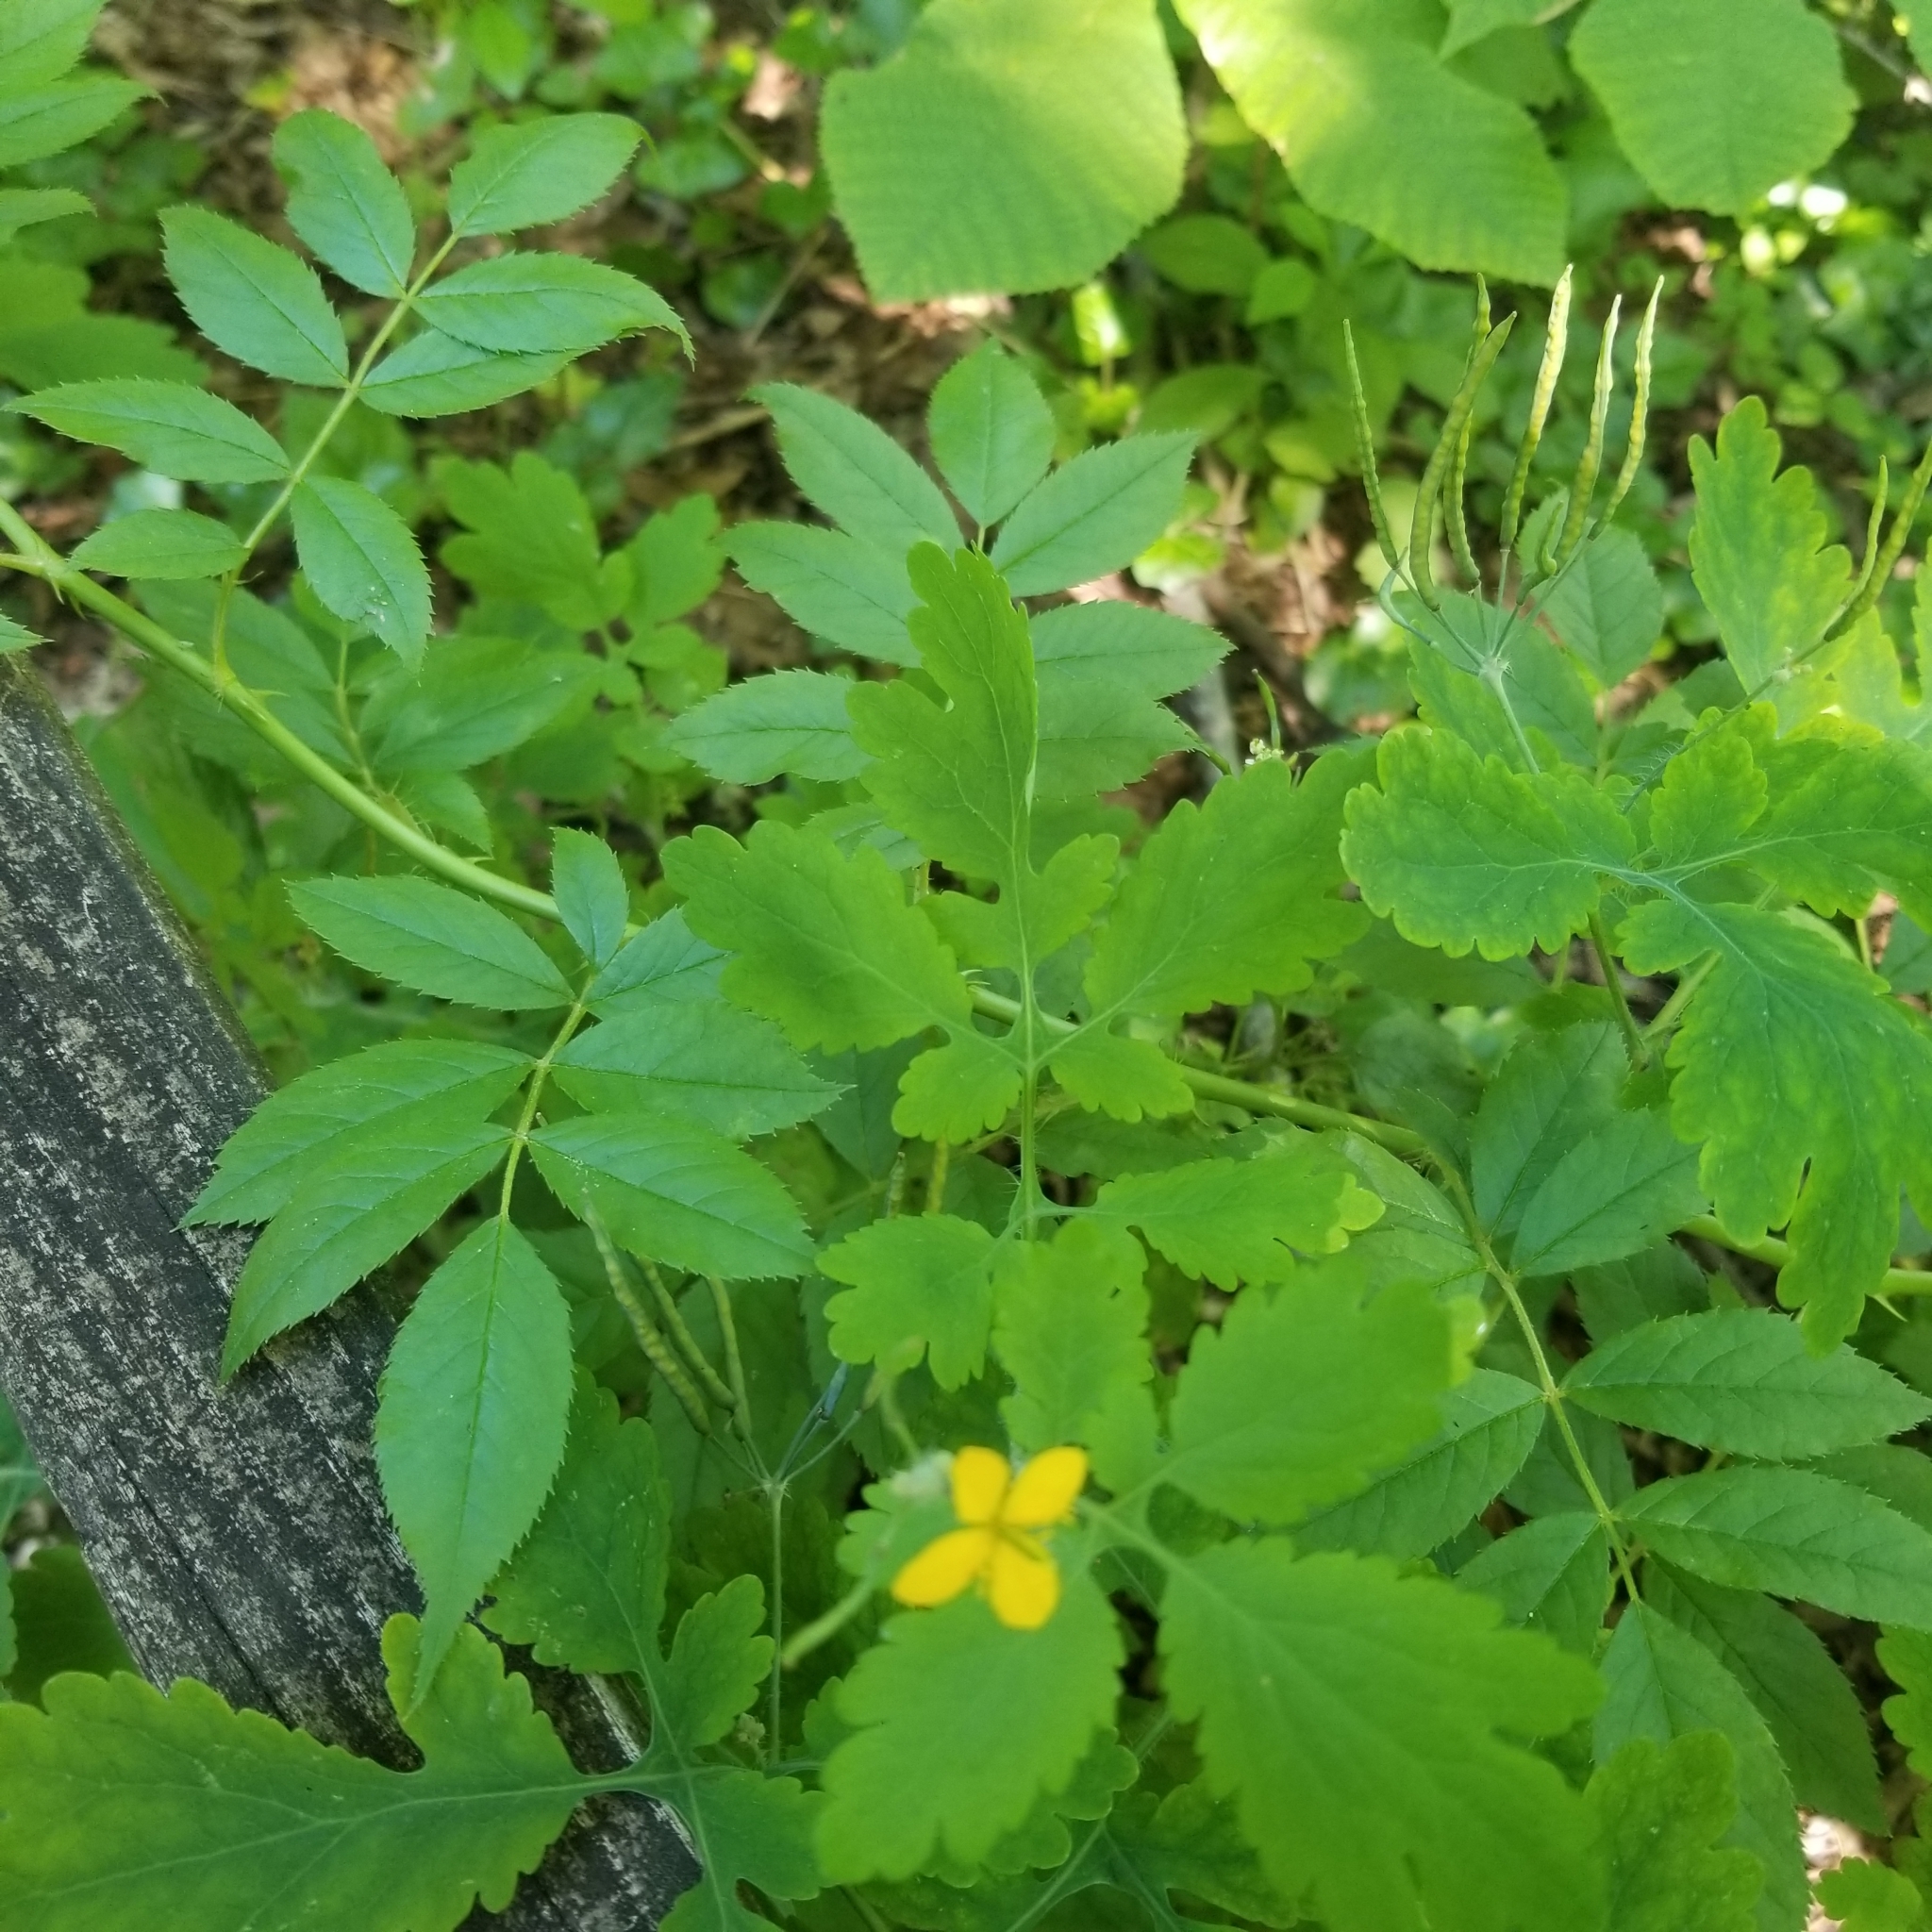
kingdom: Plantae
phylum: Tracheophyta
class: Magnoliopsida
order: Ranunculales
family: Papaveraceae
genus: Chelidonium
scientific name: Chelidonium majus
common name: Greater celandine
